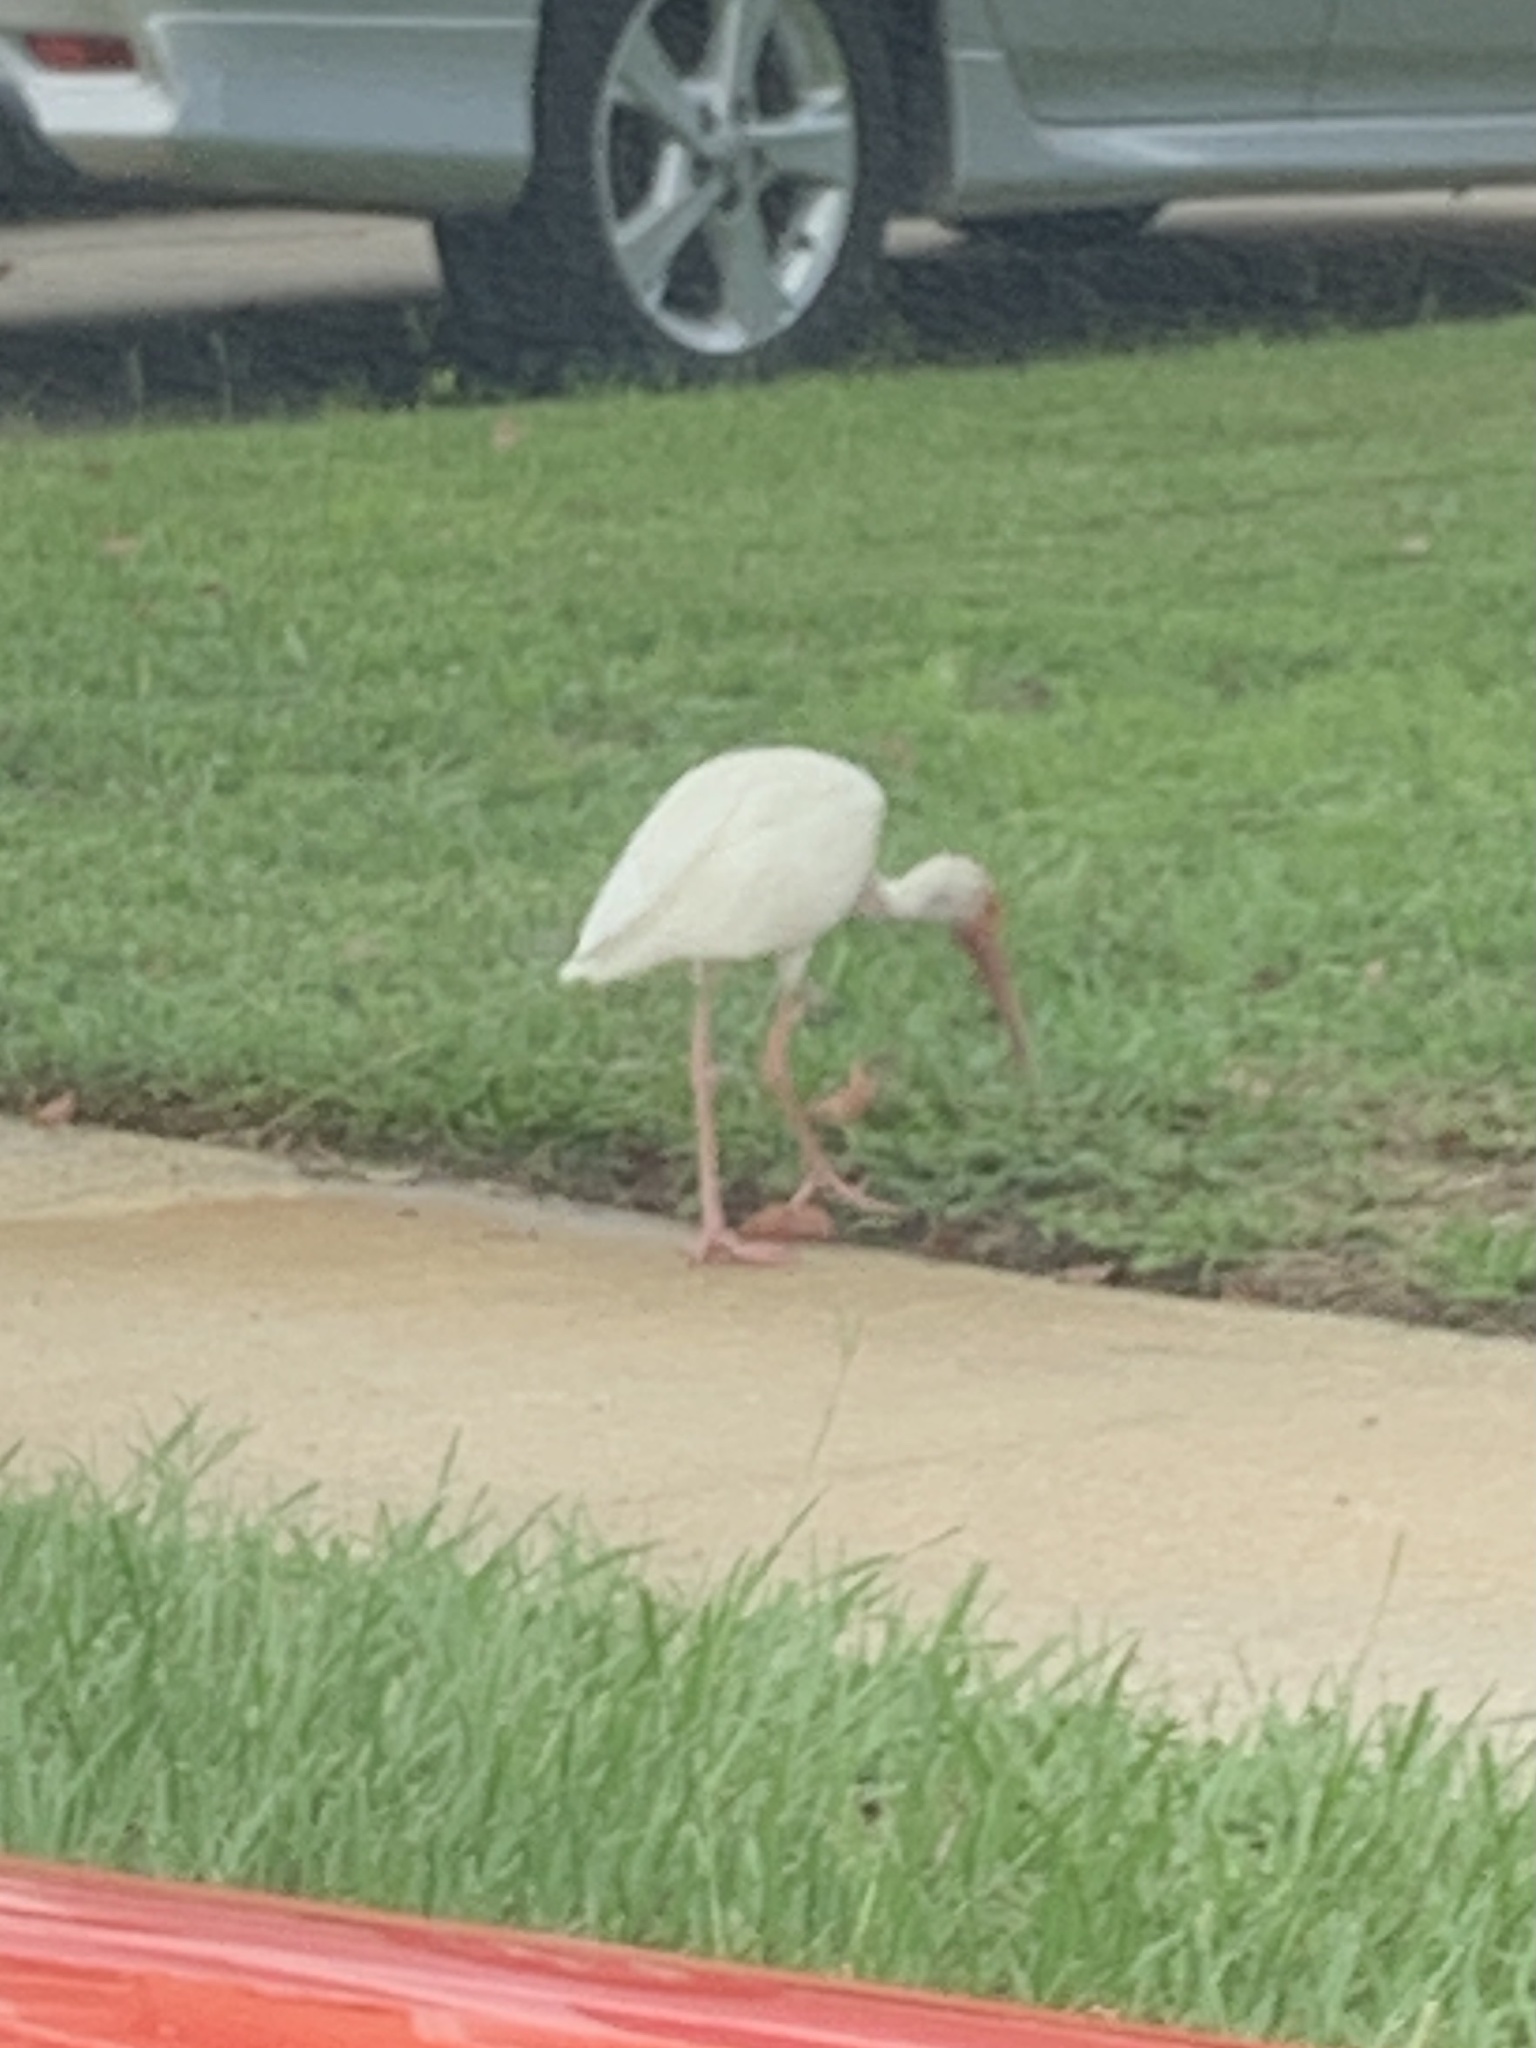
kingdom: Animalia
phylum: Chordata
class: Aves
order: Pelecaniformes
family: Threskiornithidae
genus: Eudocimus
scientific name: Eudocimus albus
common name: White ibis
